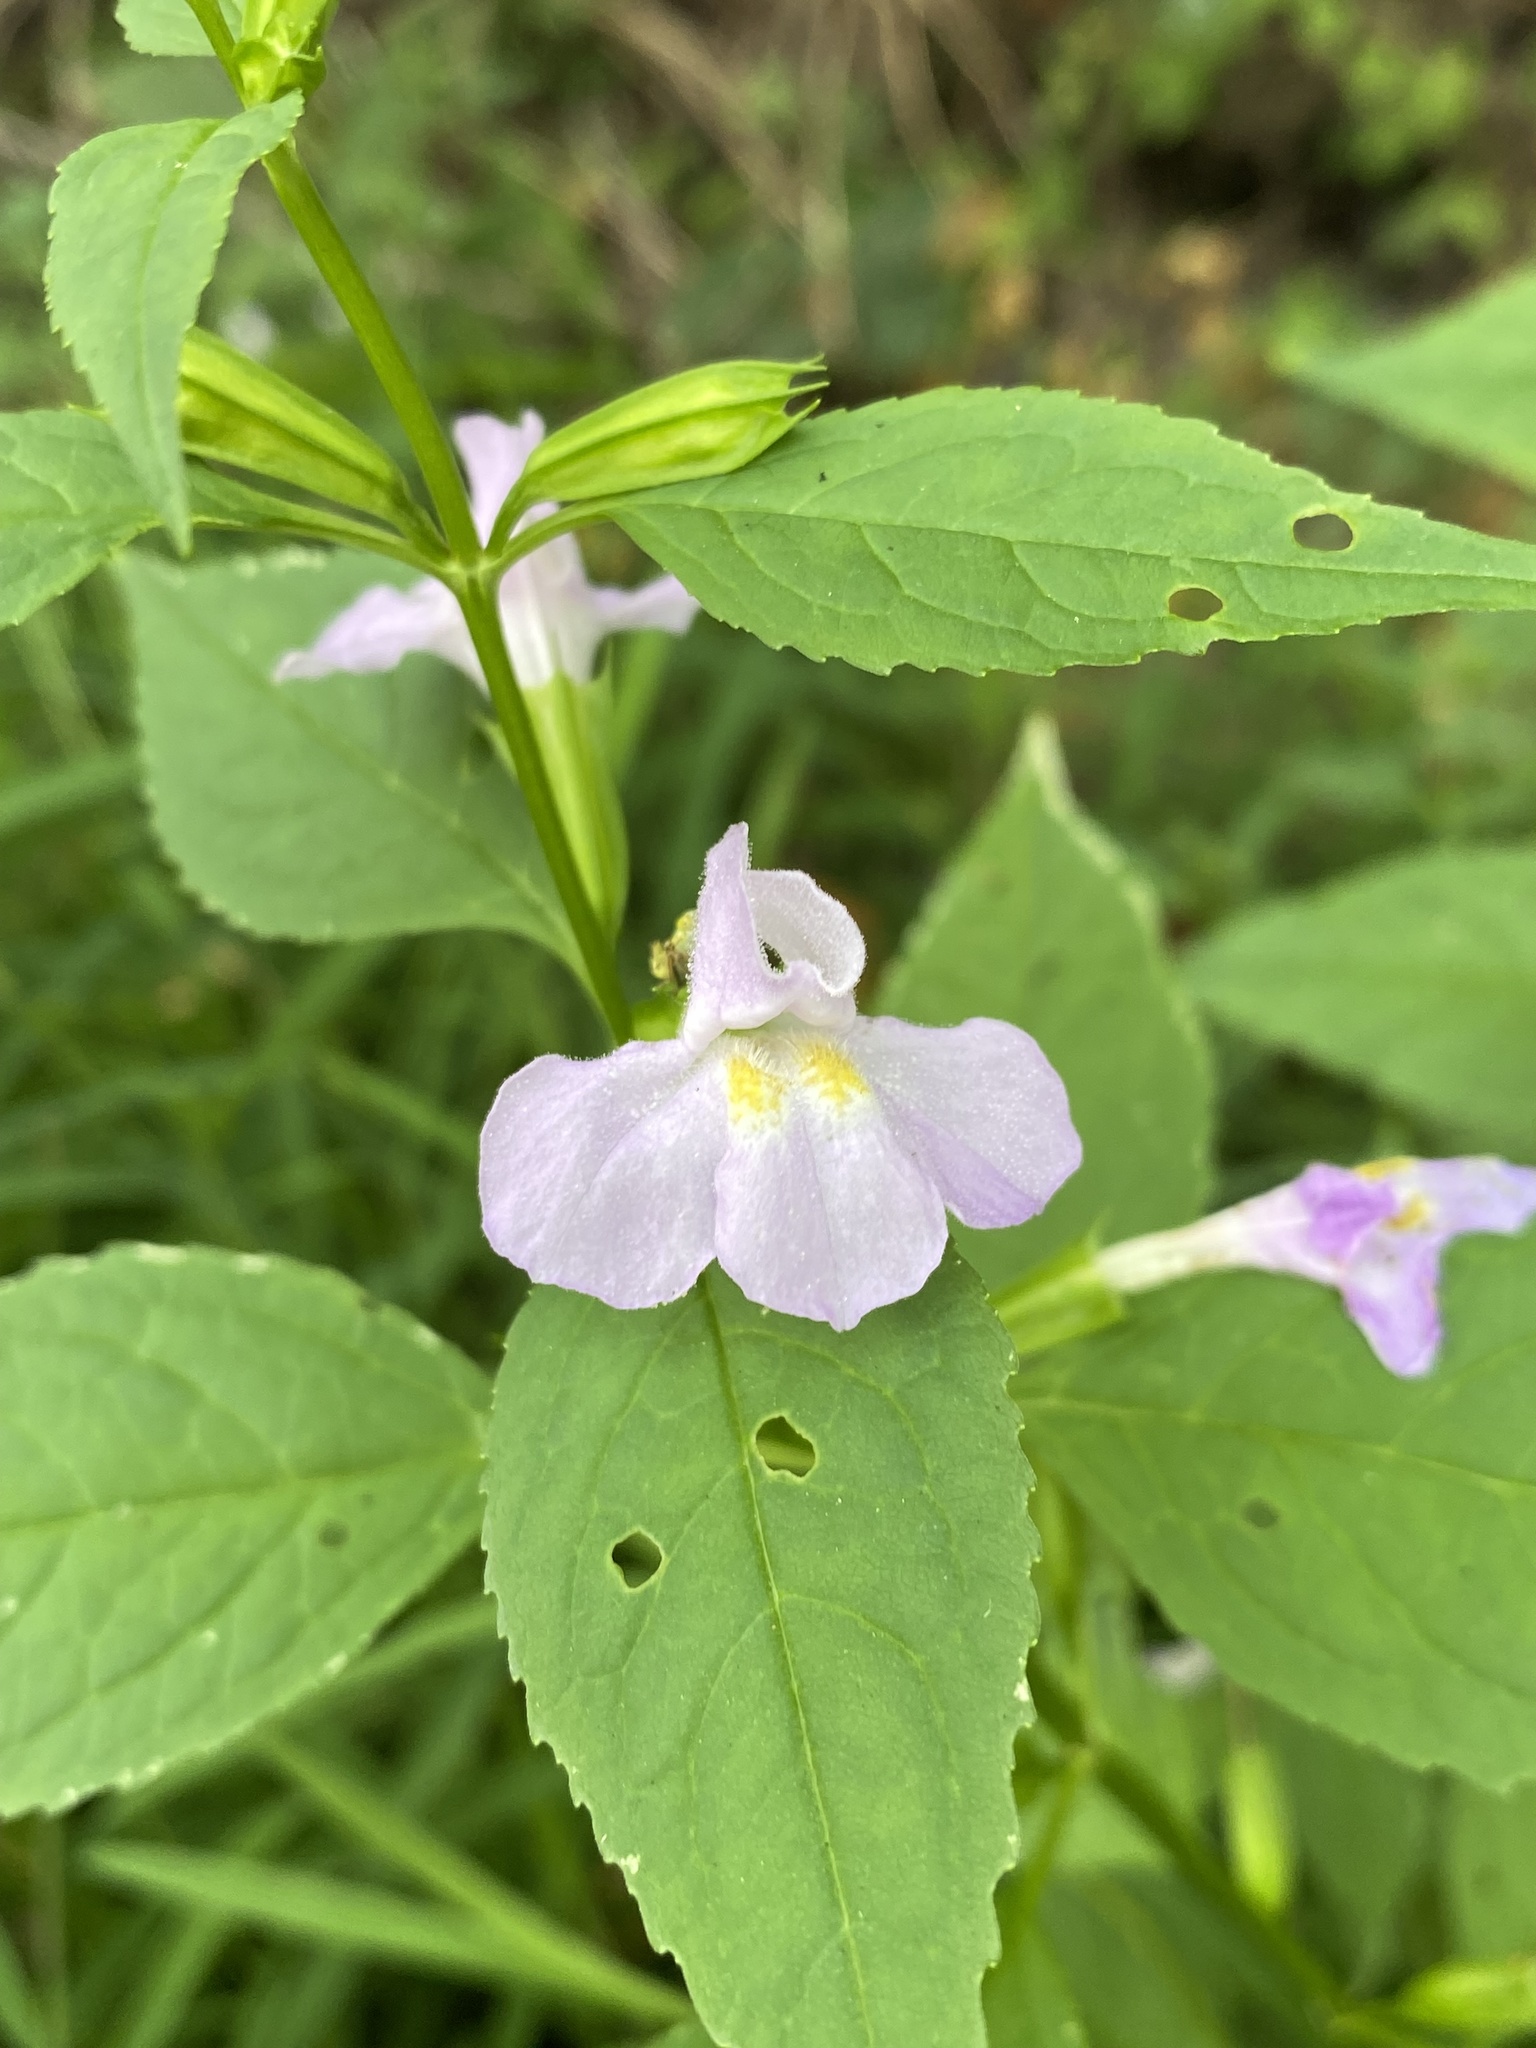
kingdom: Plantae
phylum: Tracheophyta
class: Magnoliopsida
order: Lamiales
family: Phrymaceae
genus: Mimulus
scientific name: Mimulus alatus
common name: Sharp-wing monkey-flower
